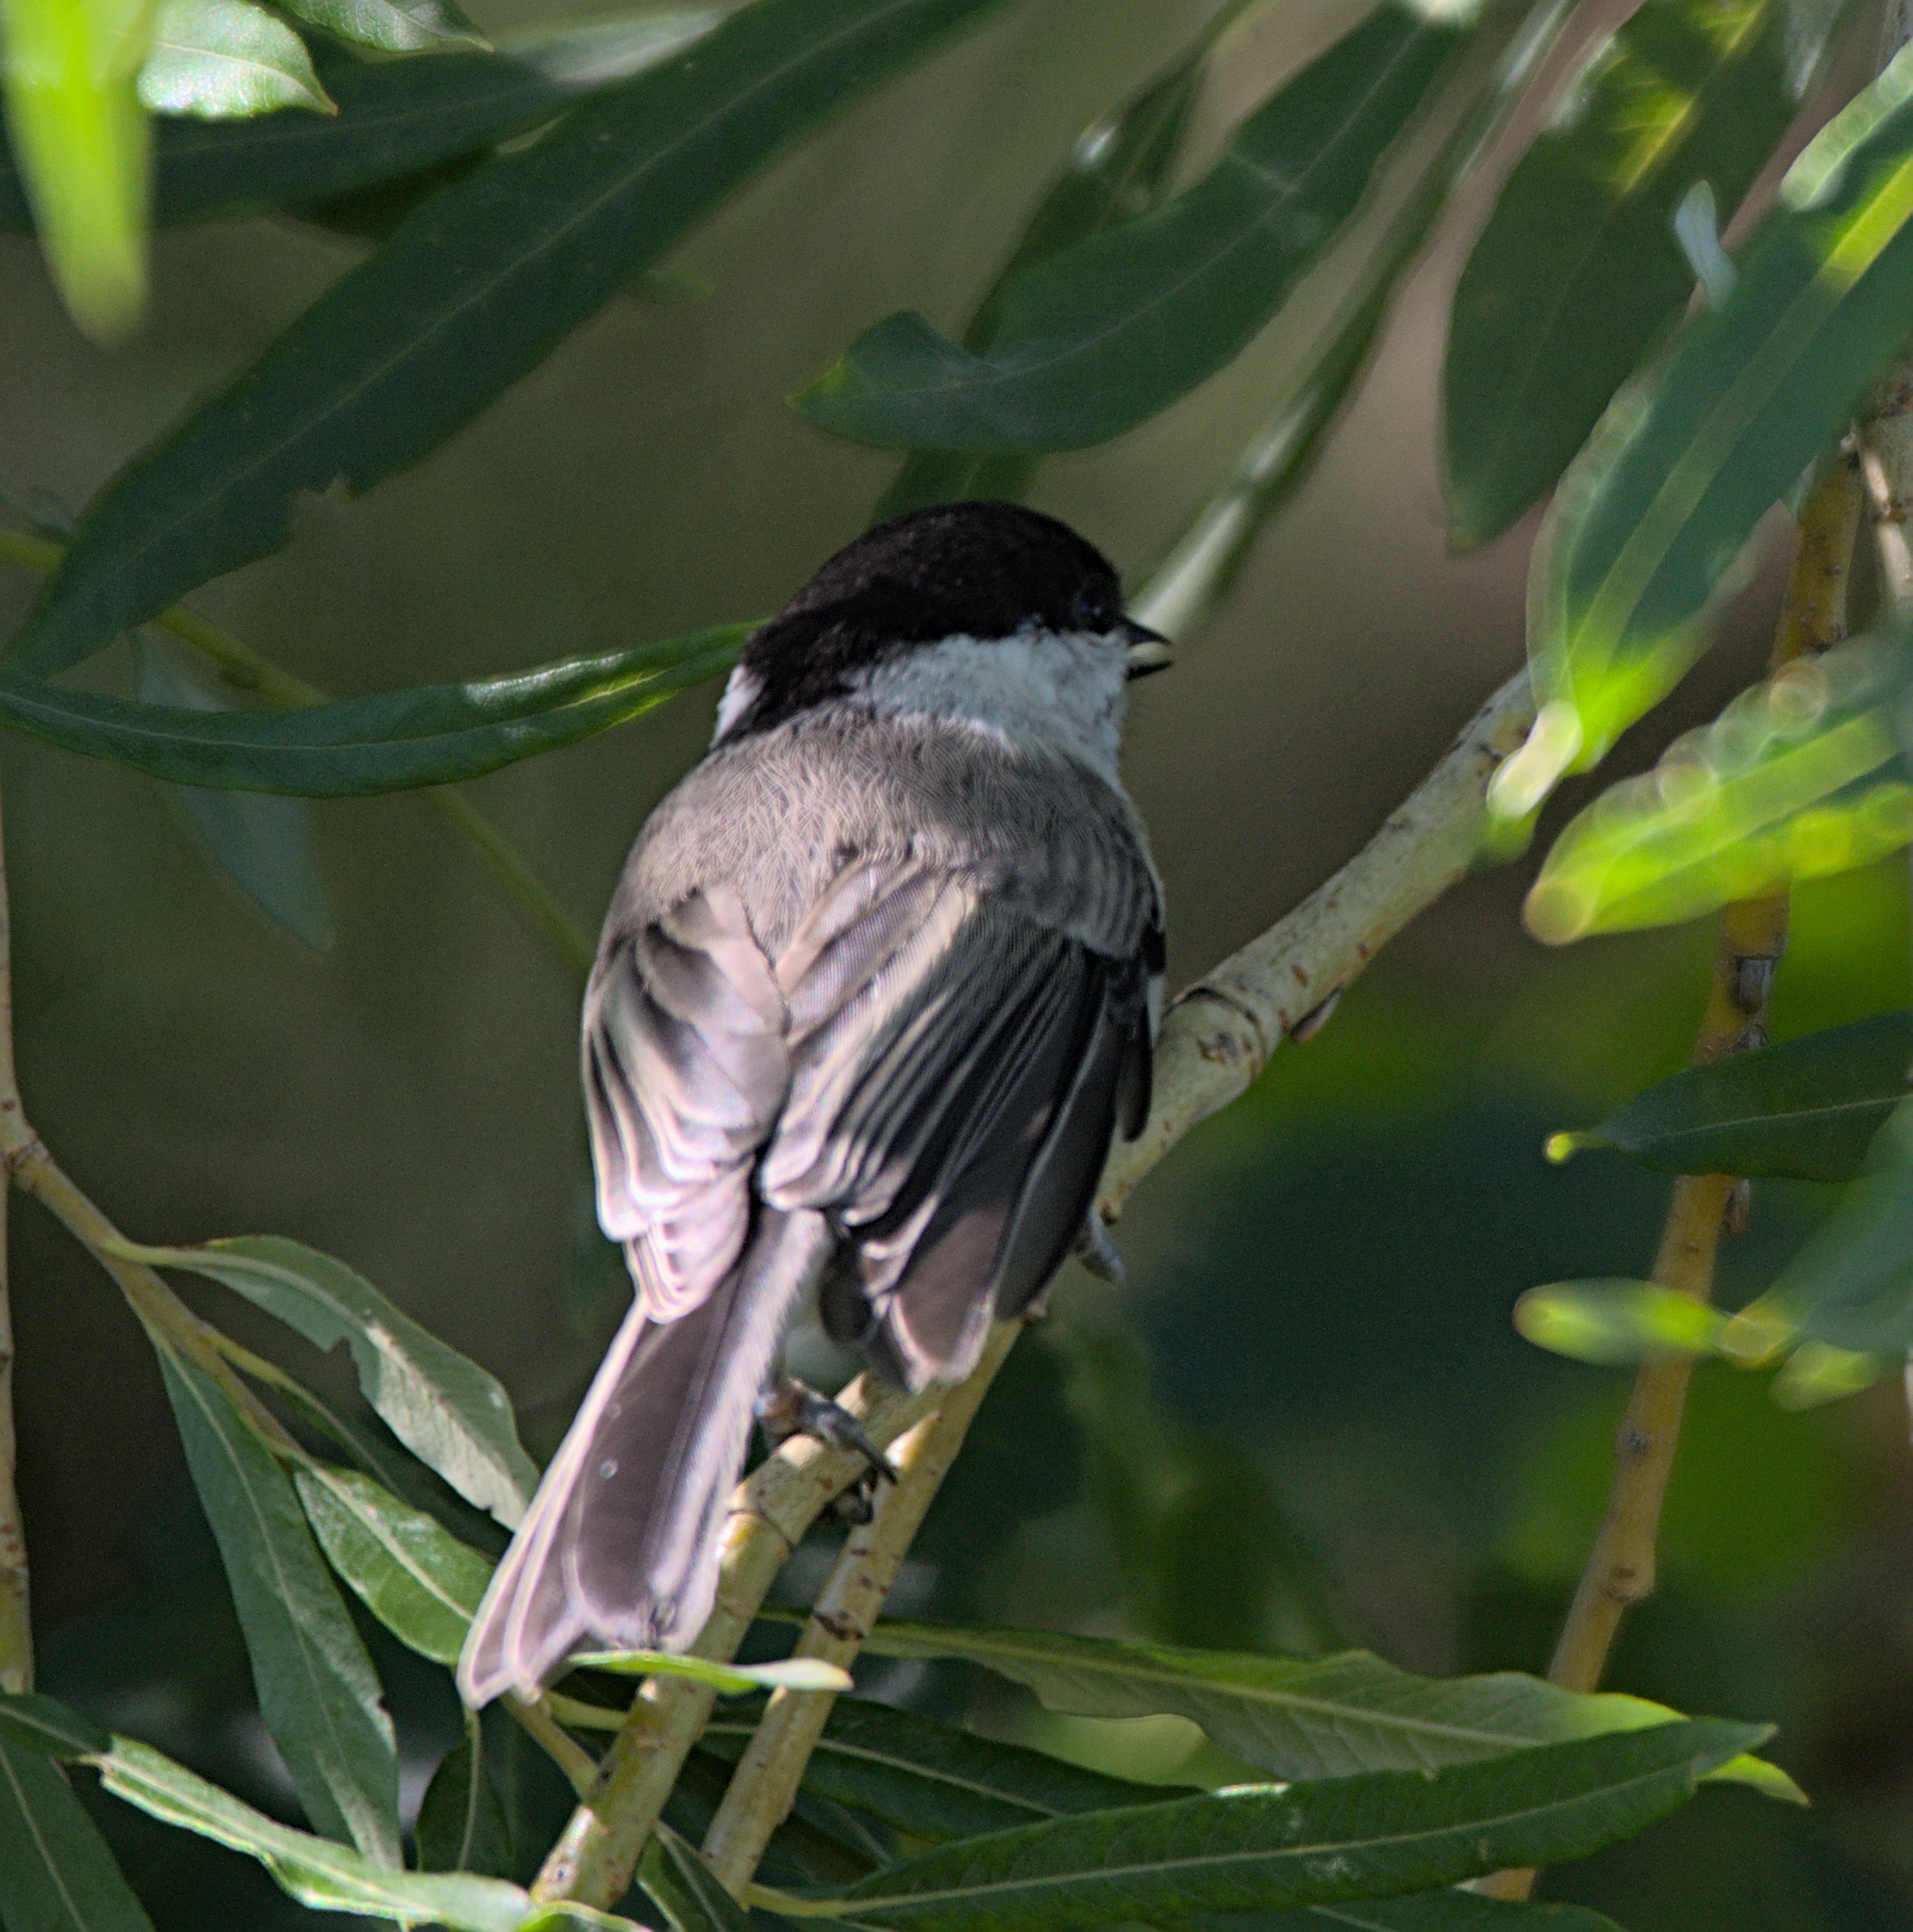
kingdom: Animalia
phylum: Chordata
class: Aves
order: Passeriformes
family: Paridae
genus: Poecile
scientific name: Poecile montanus
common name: Willow tit
